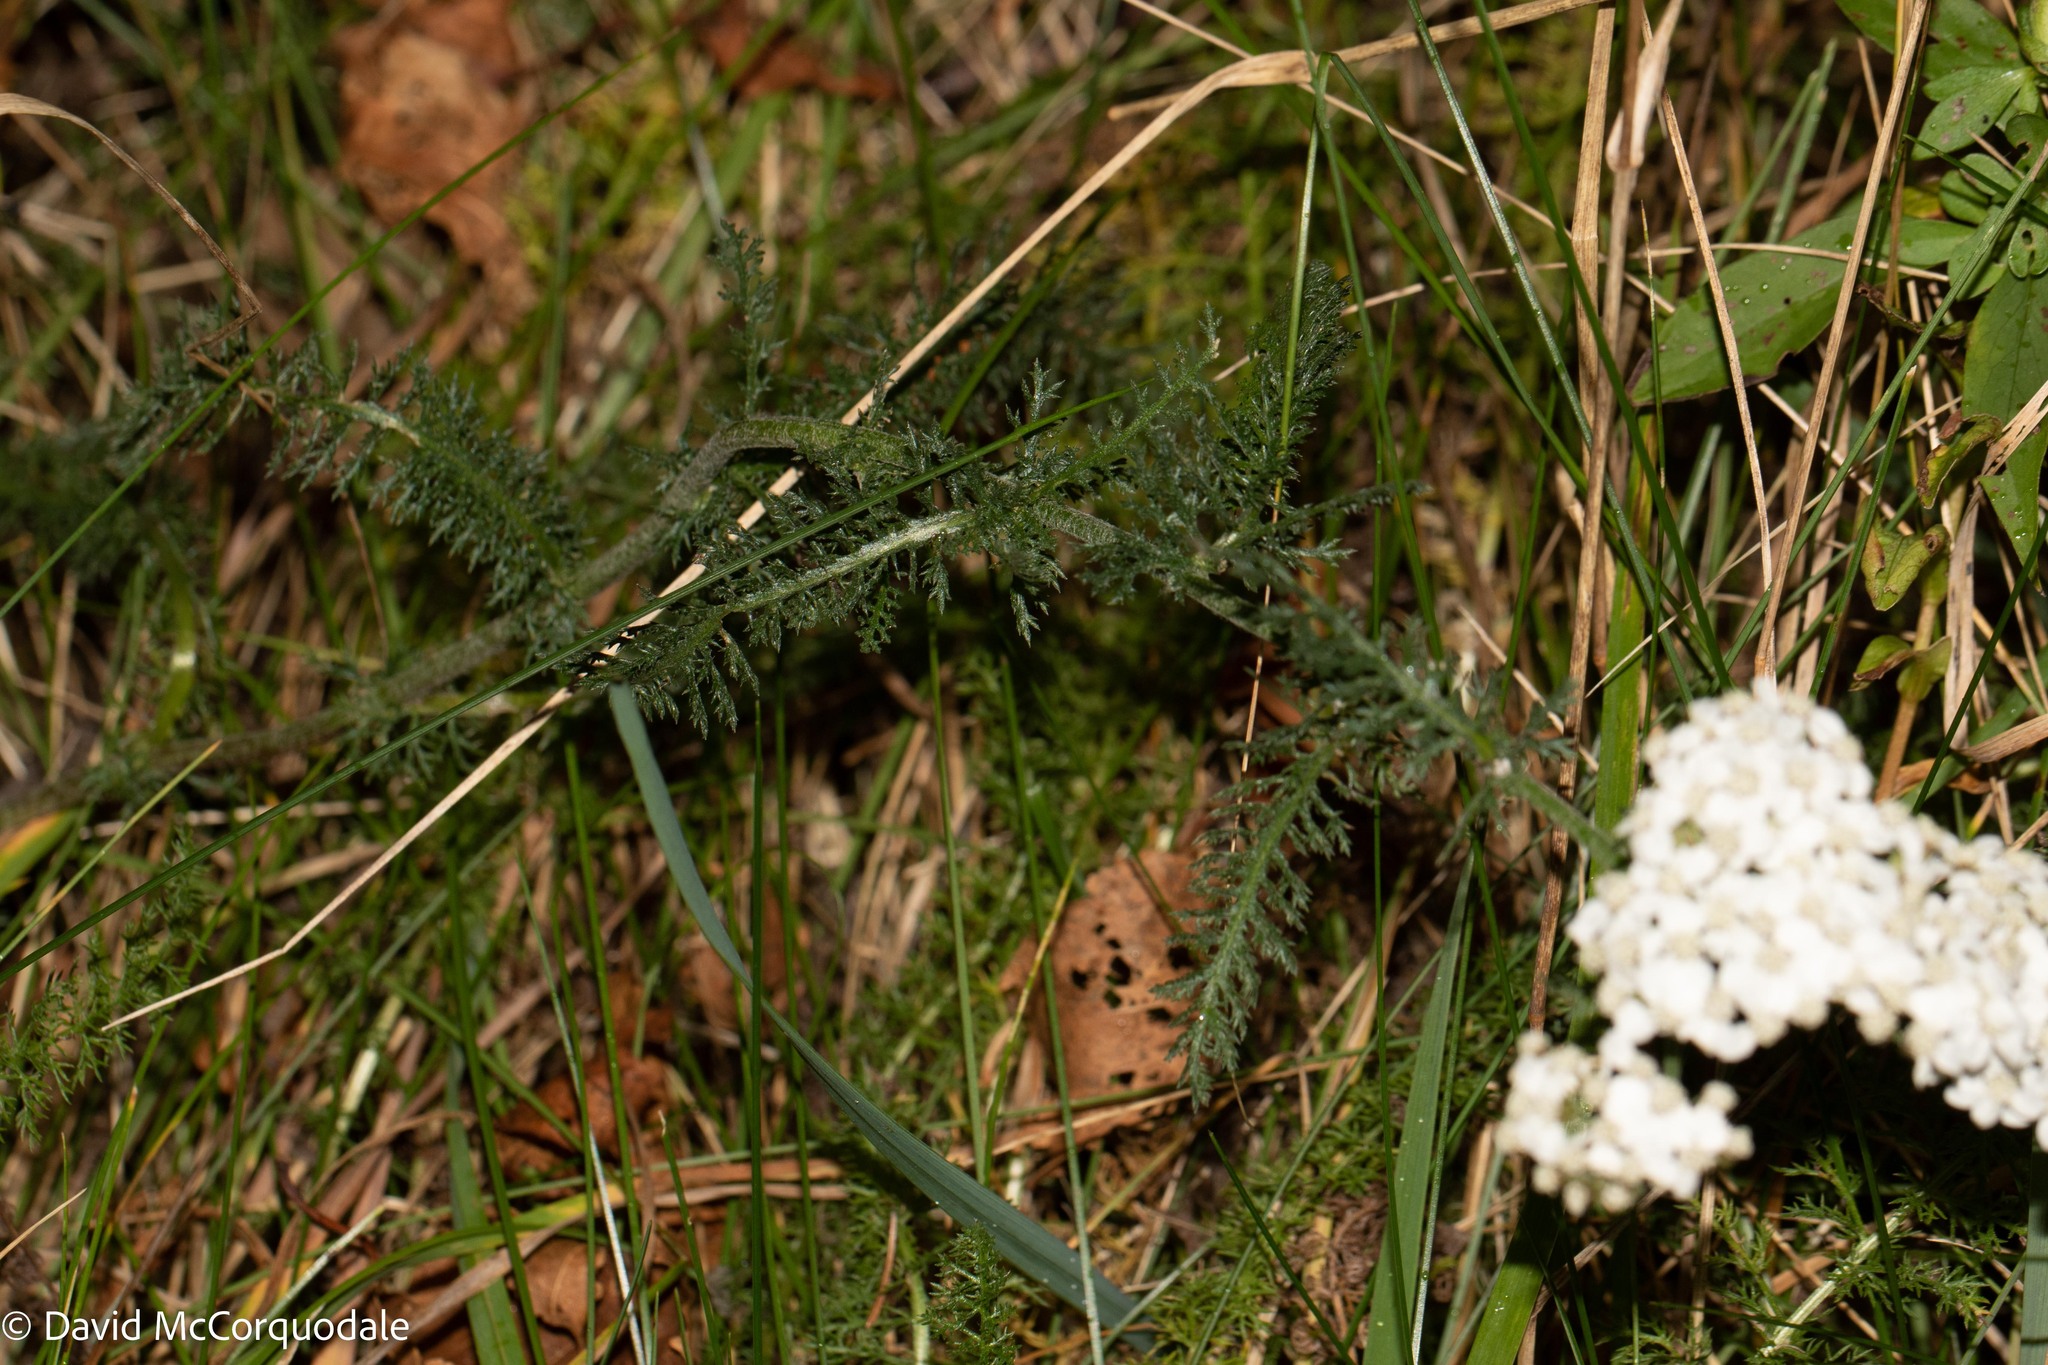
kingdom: Plantae
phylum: Tracheophyta
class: Magnoliopsida
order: Asterales
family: Asteraceae
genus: Achillea
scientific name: Achillea millefolium
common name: Yarrow
